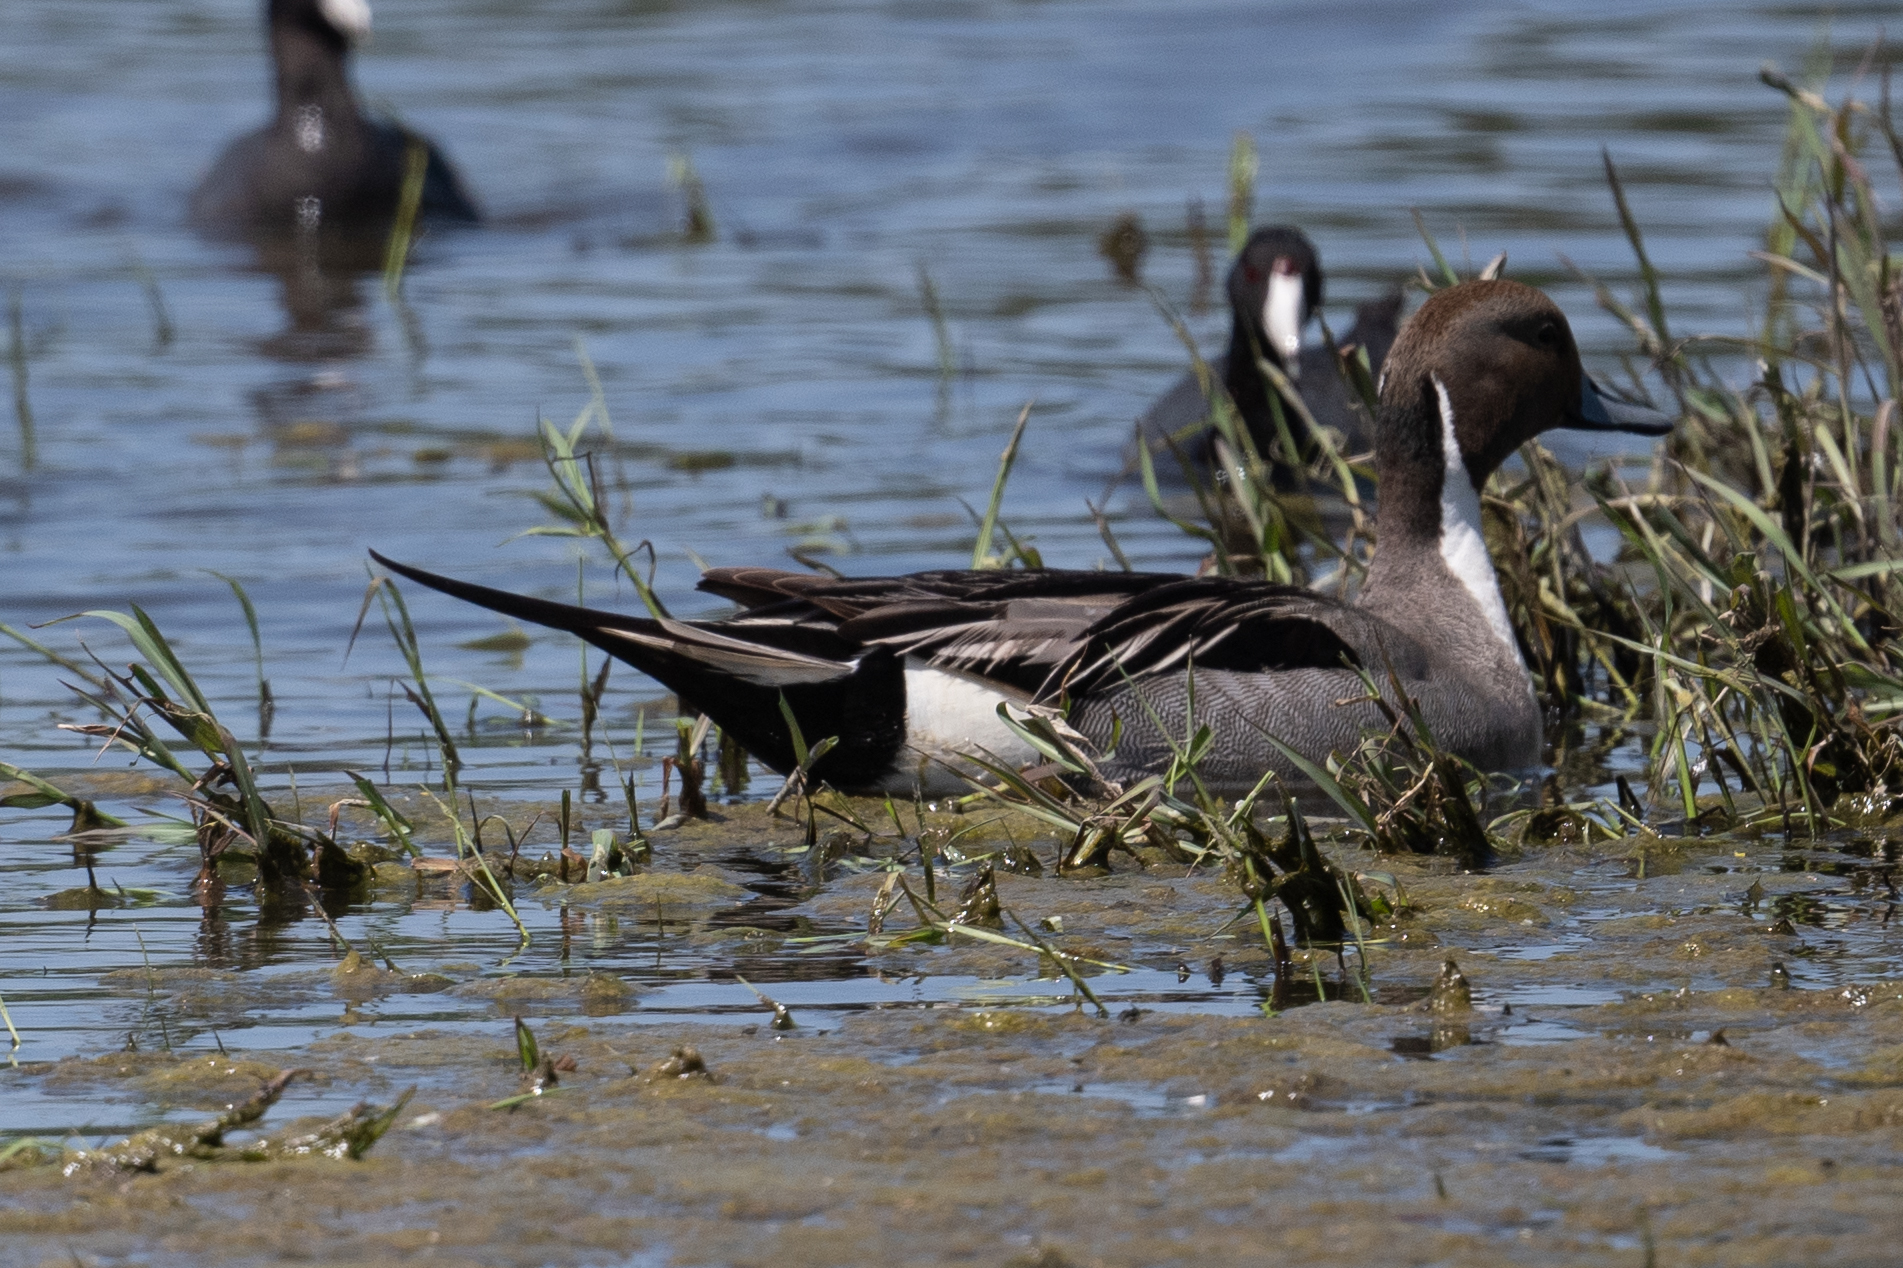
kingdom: Animalia
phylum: Chordata
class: Aves
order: Anseriformes
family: Anatidae
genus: Anas
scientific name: Anas acuta
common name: Northern pintail
